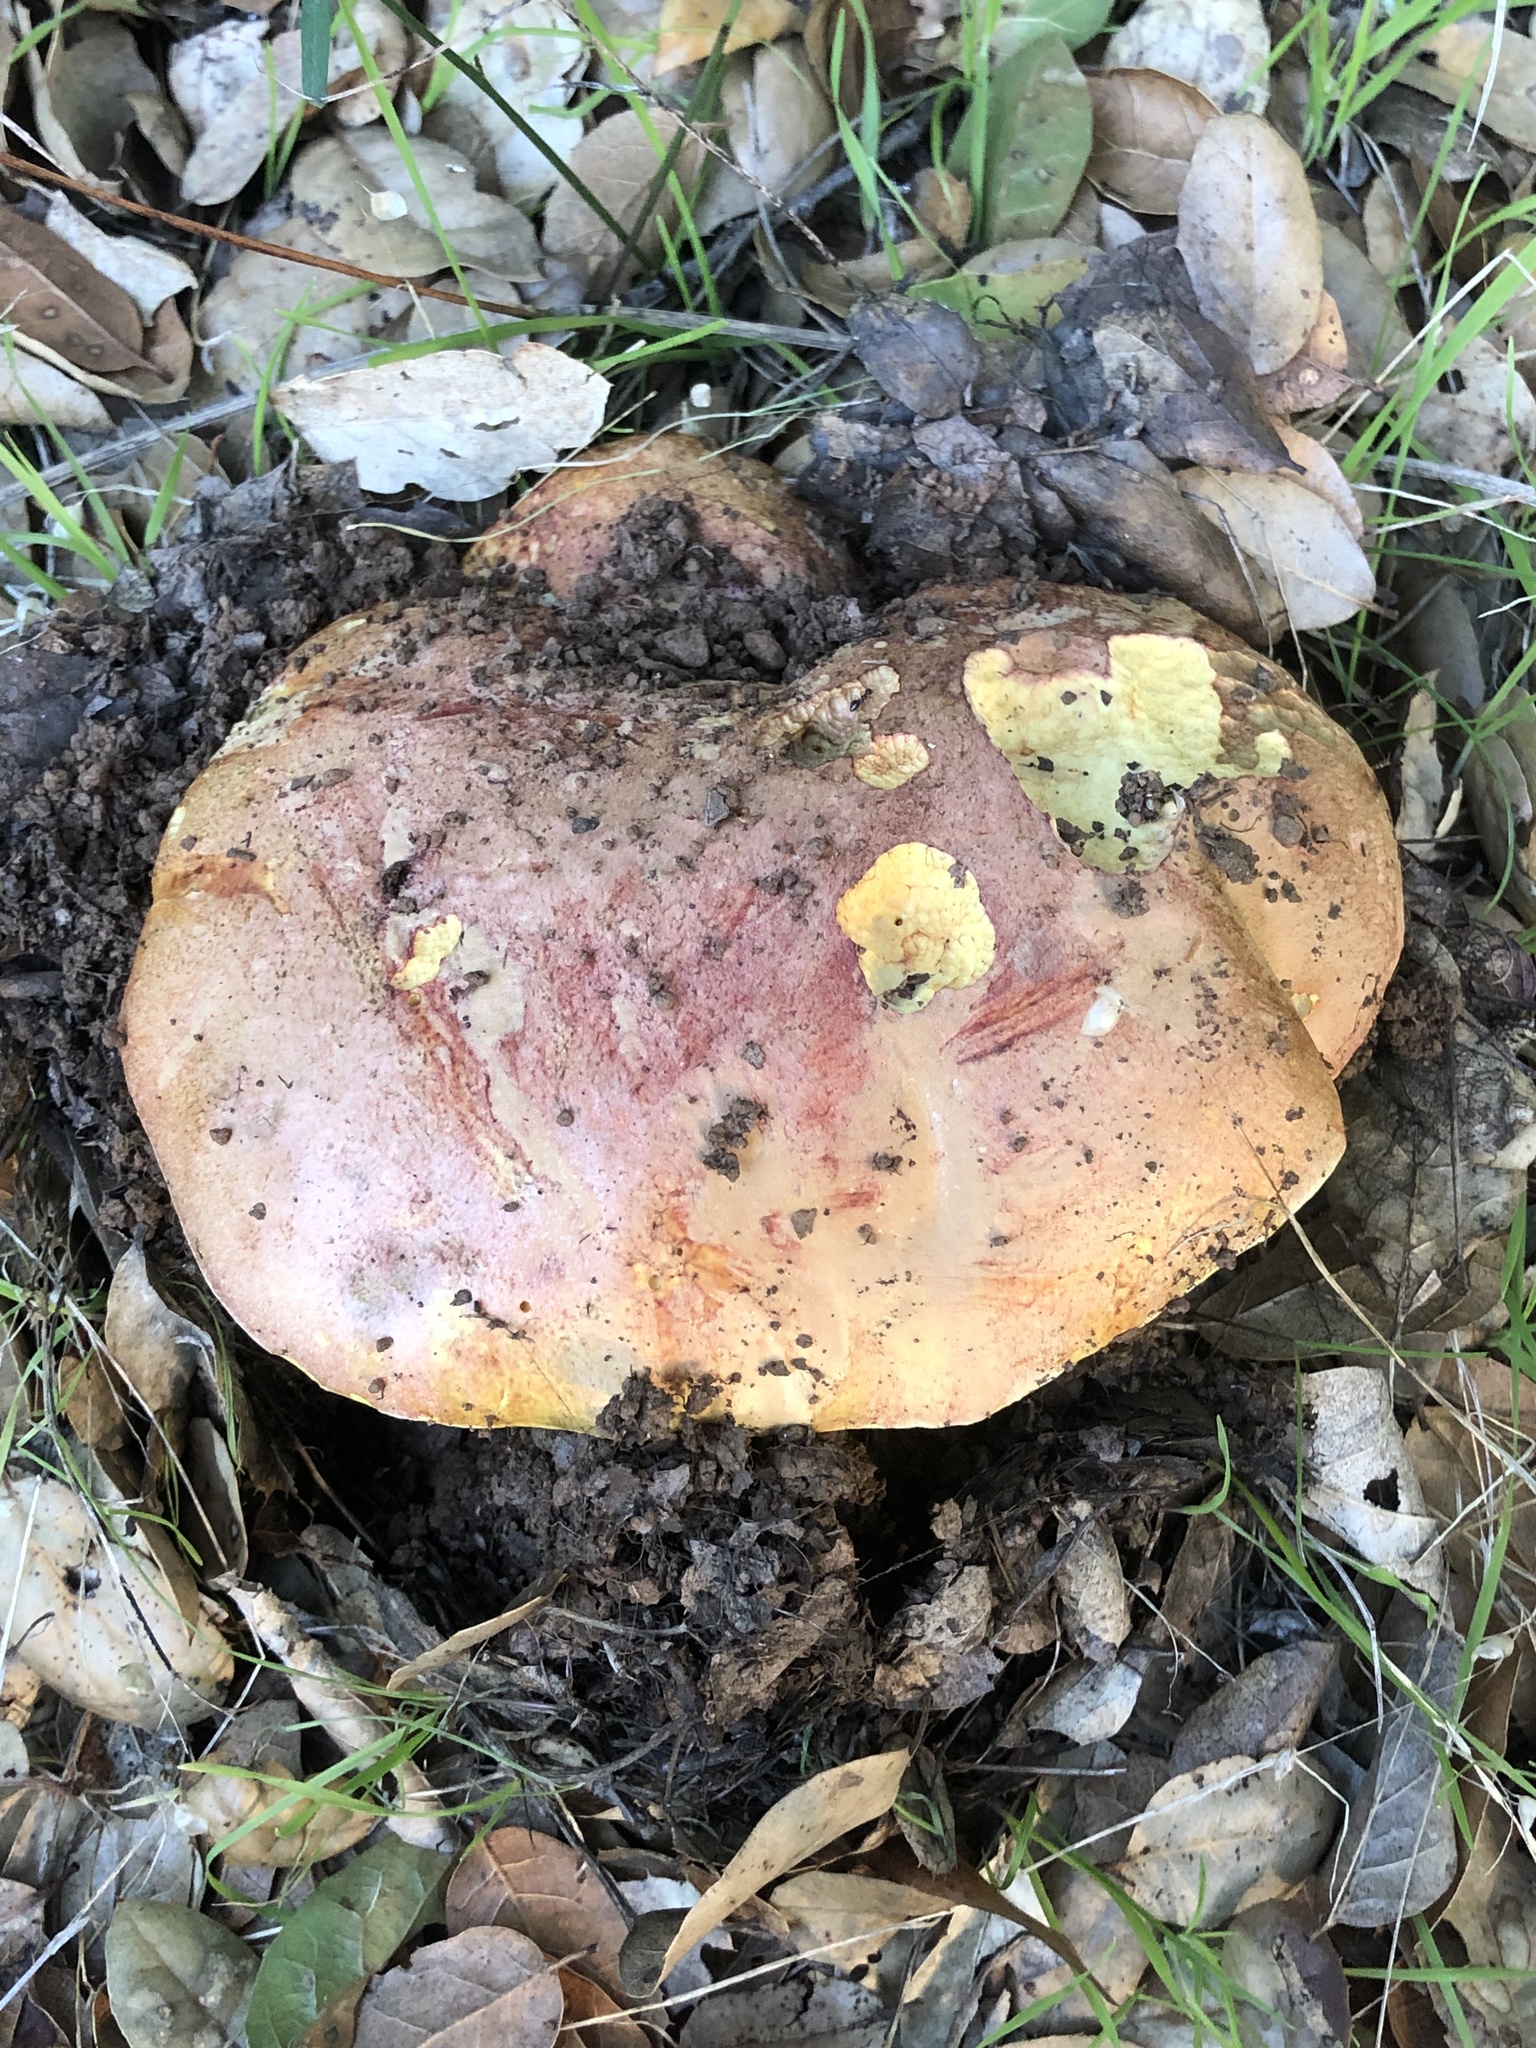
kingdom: Fungi
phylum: Basidiomycota
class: Agaricomycetes
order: Boletales
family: Boletaceae
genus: Butyriboletus
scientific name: Butyriboletus querciregius
